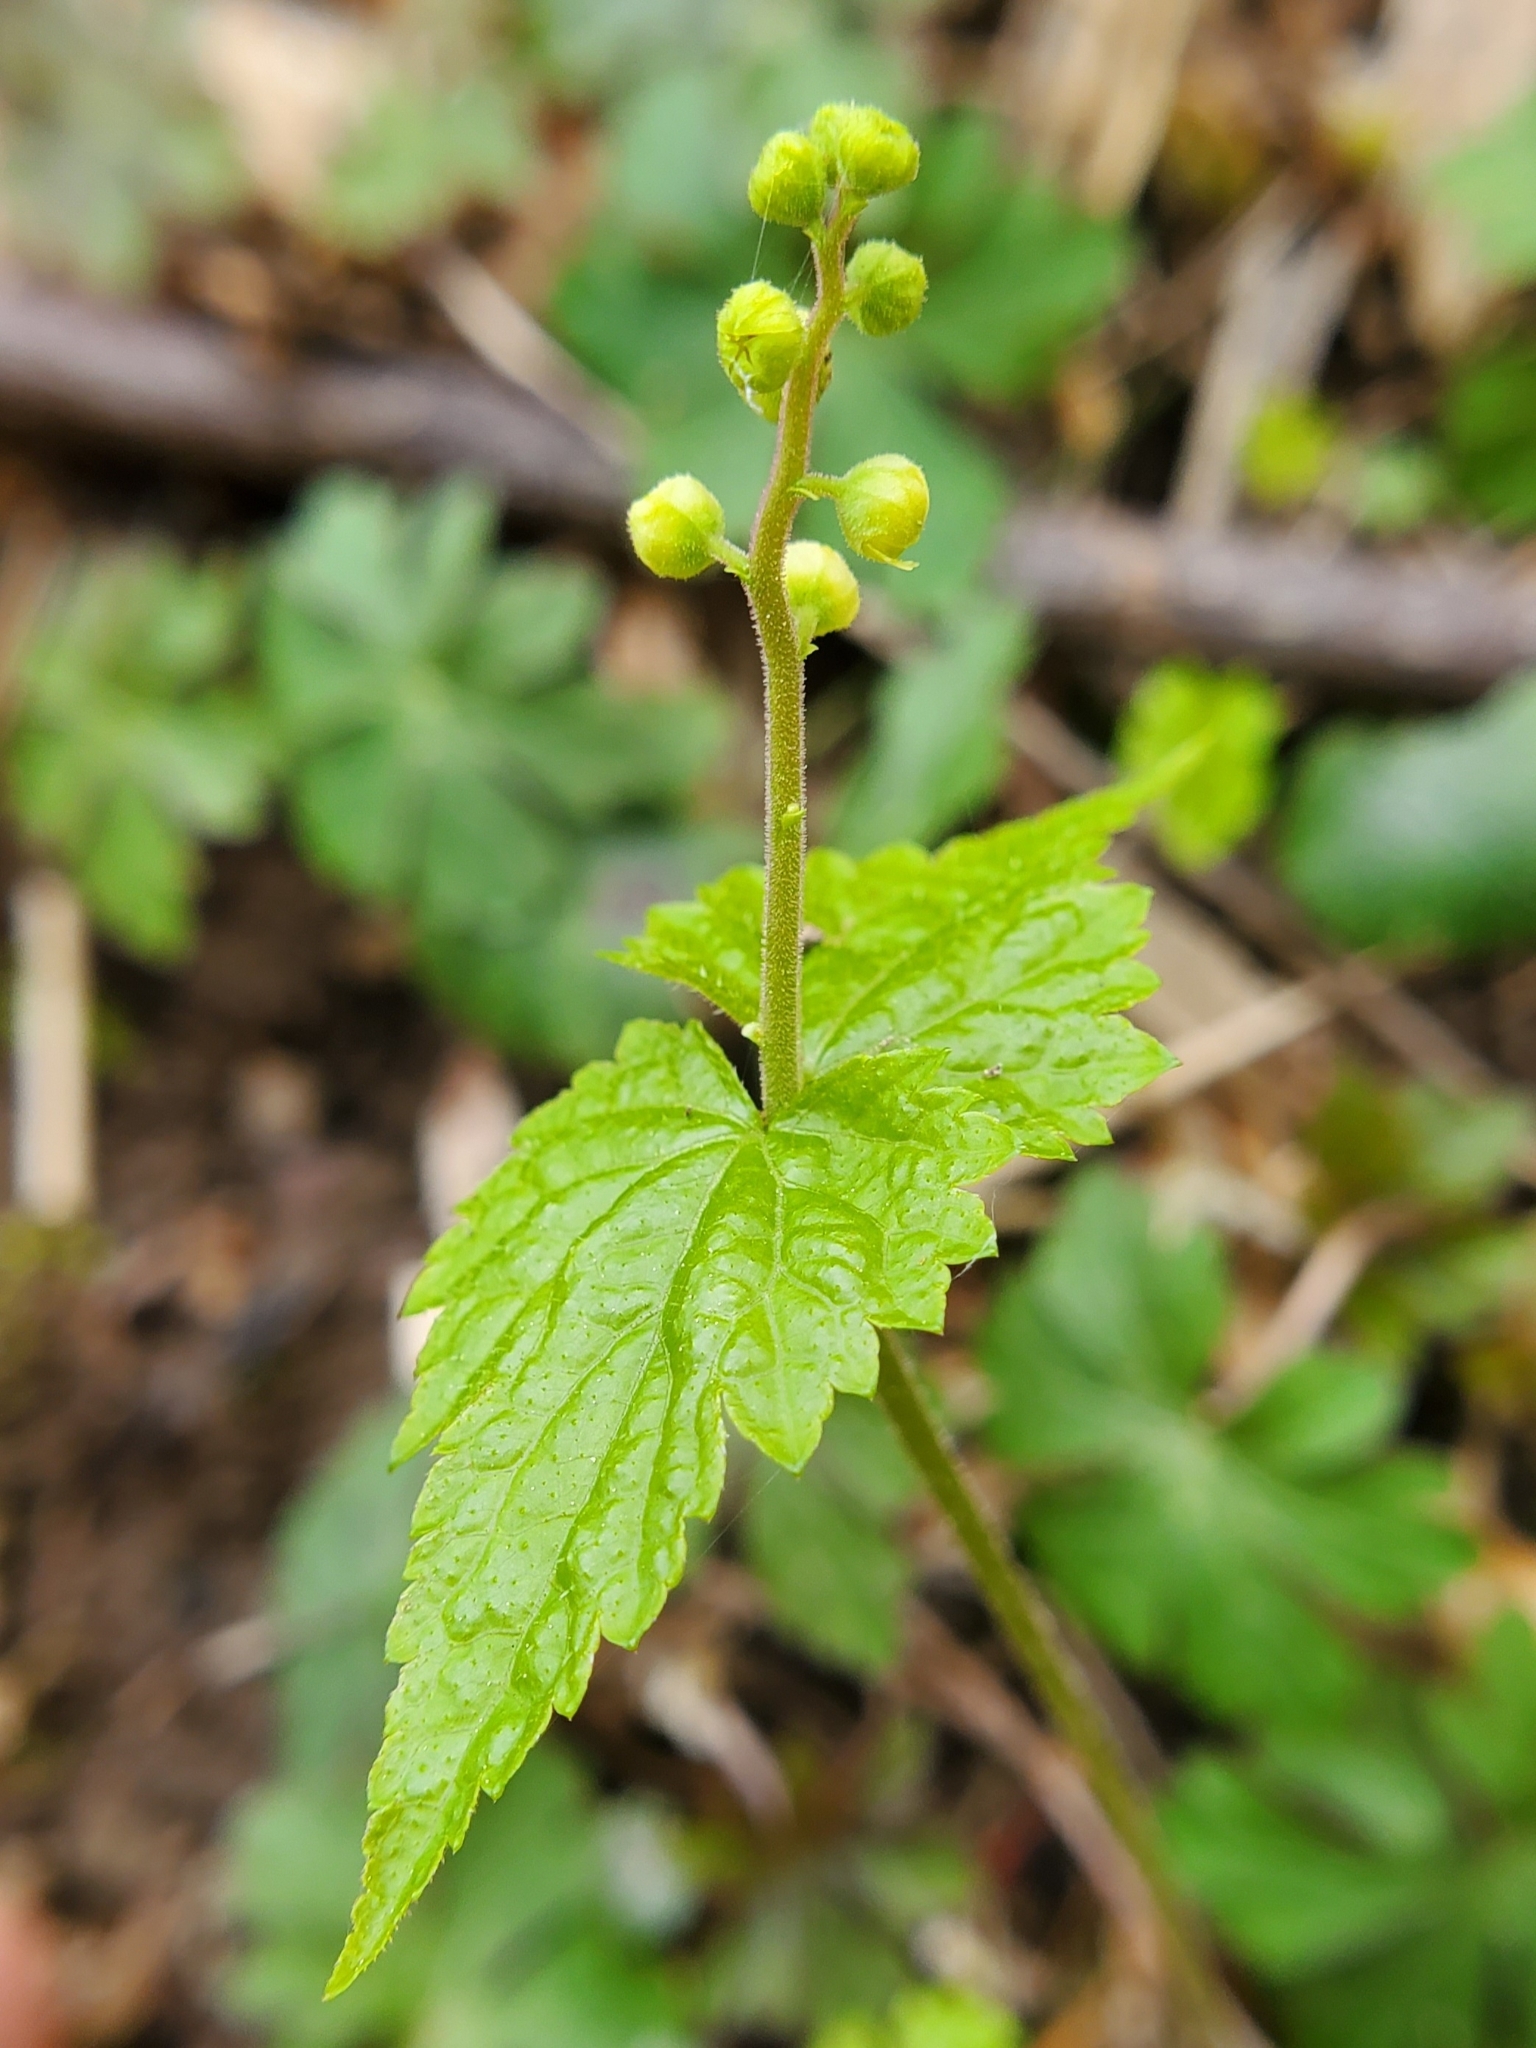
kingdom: Plantae
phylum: Tracheophyta
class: Magnoliopsida
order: Saxifragales
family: Saxifragaceae
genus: Mitella
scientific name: Mitella diphylla
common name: Coolwort
